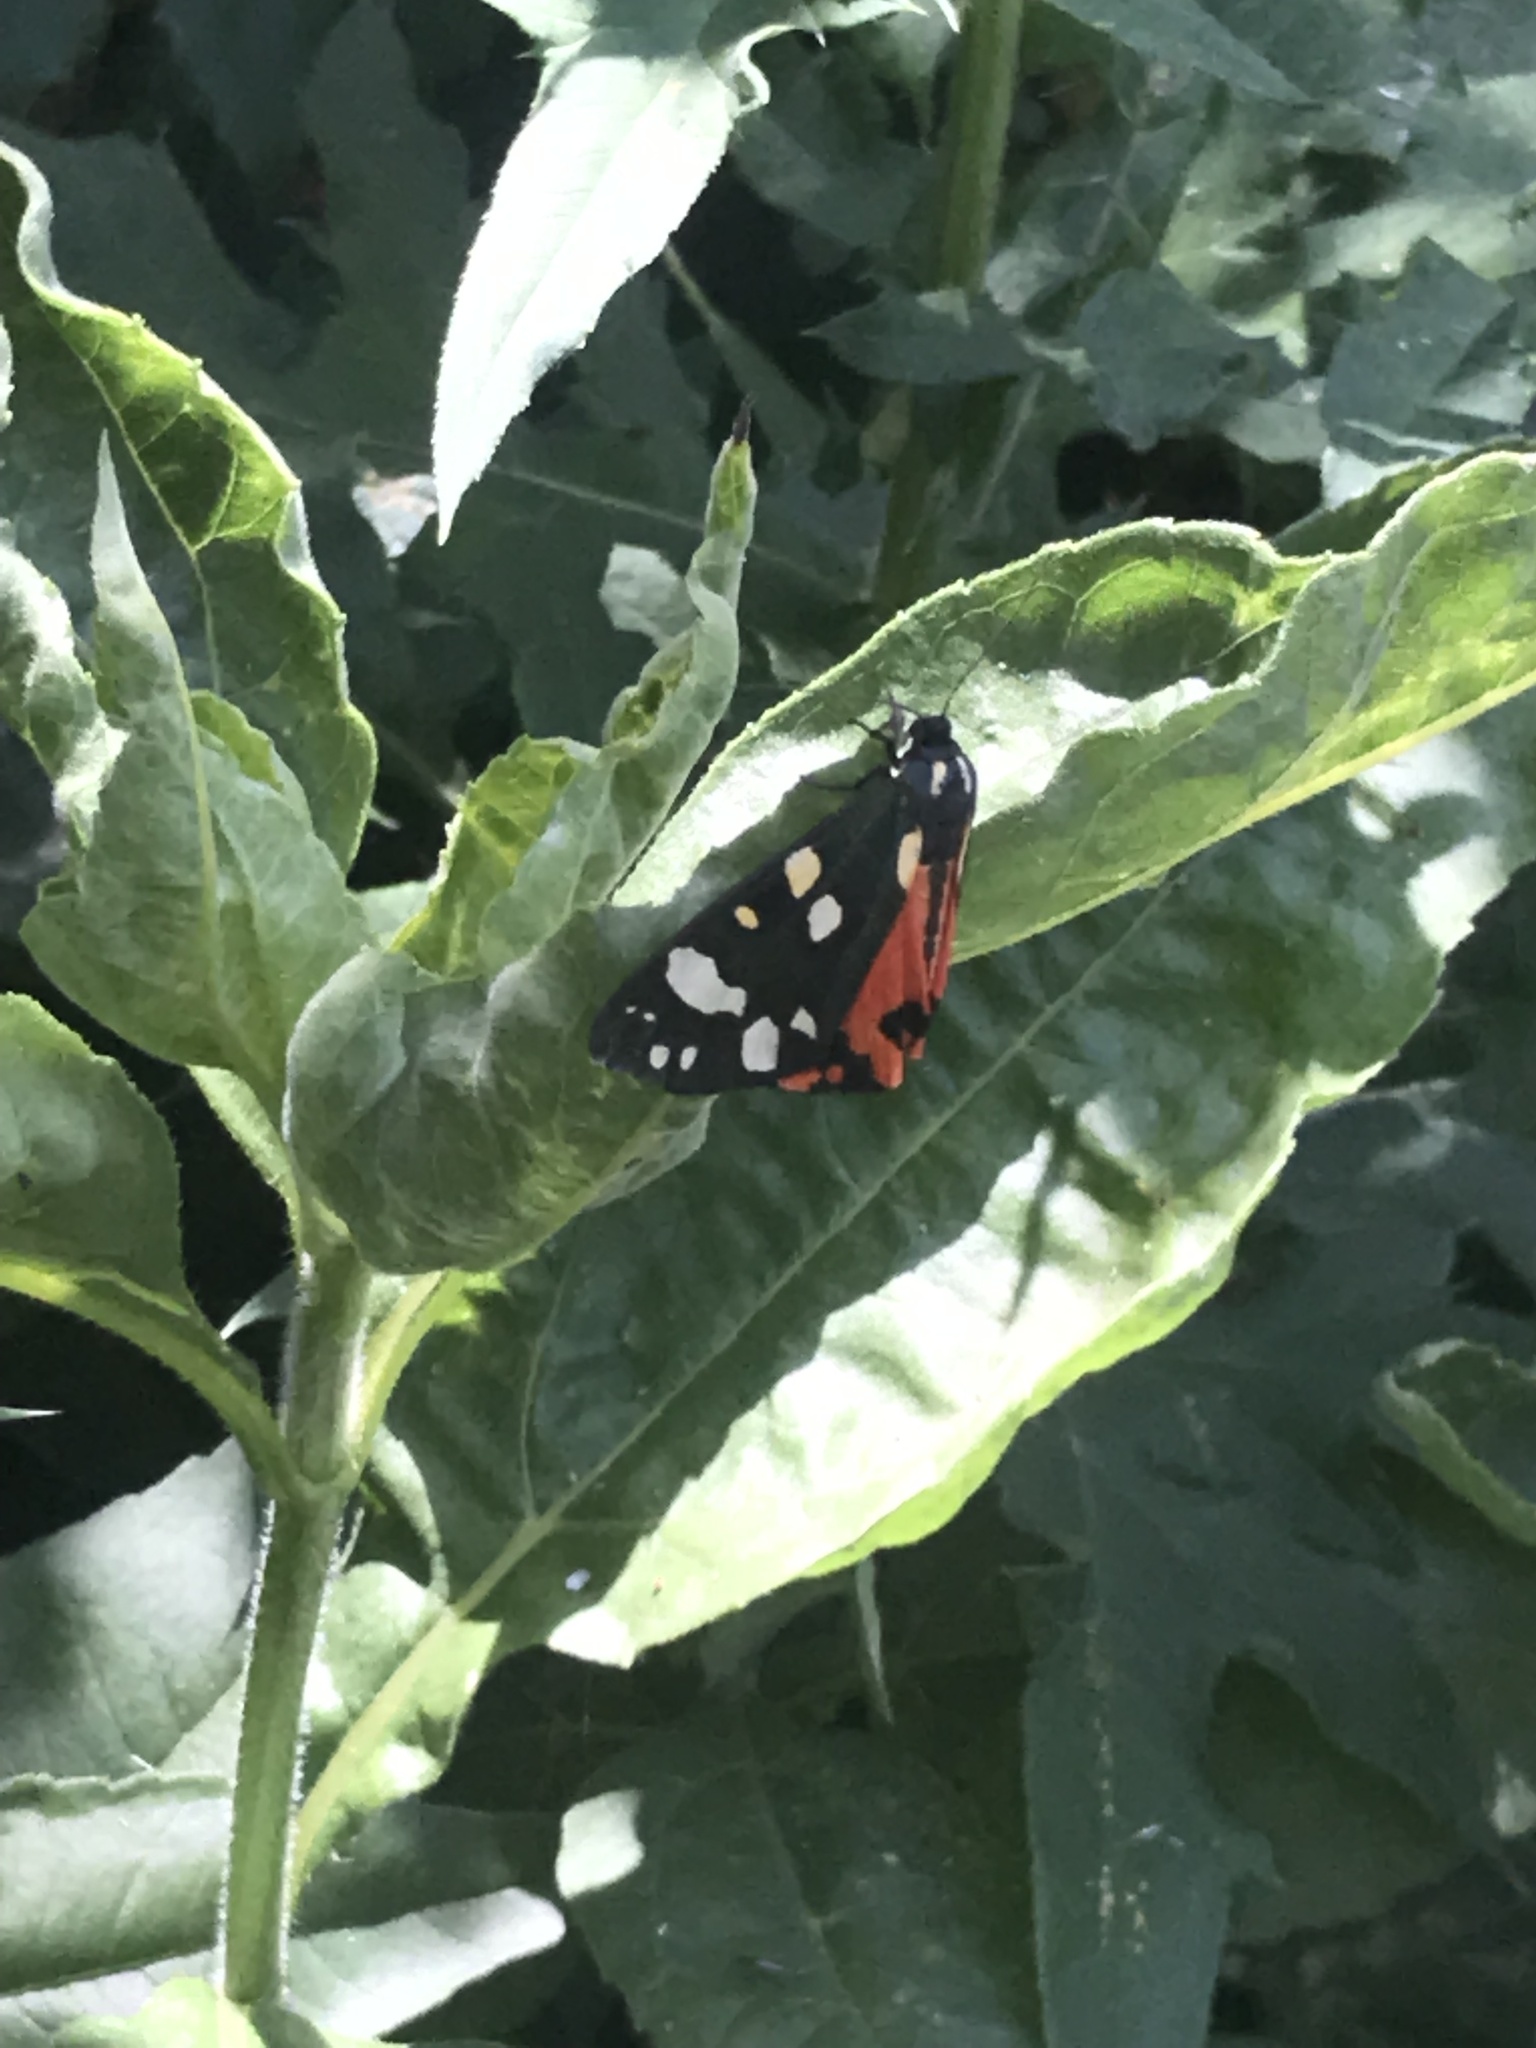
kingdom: Animalia
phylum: Arthropoda
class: Insecta
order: Lepidoptera
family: Erebidae
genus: Callimorpha
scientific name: Callimorpha dominula
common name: Scarlet tiger
